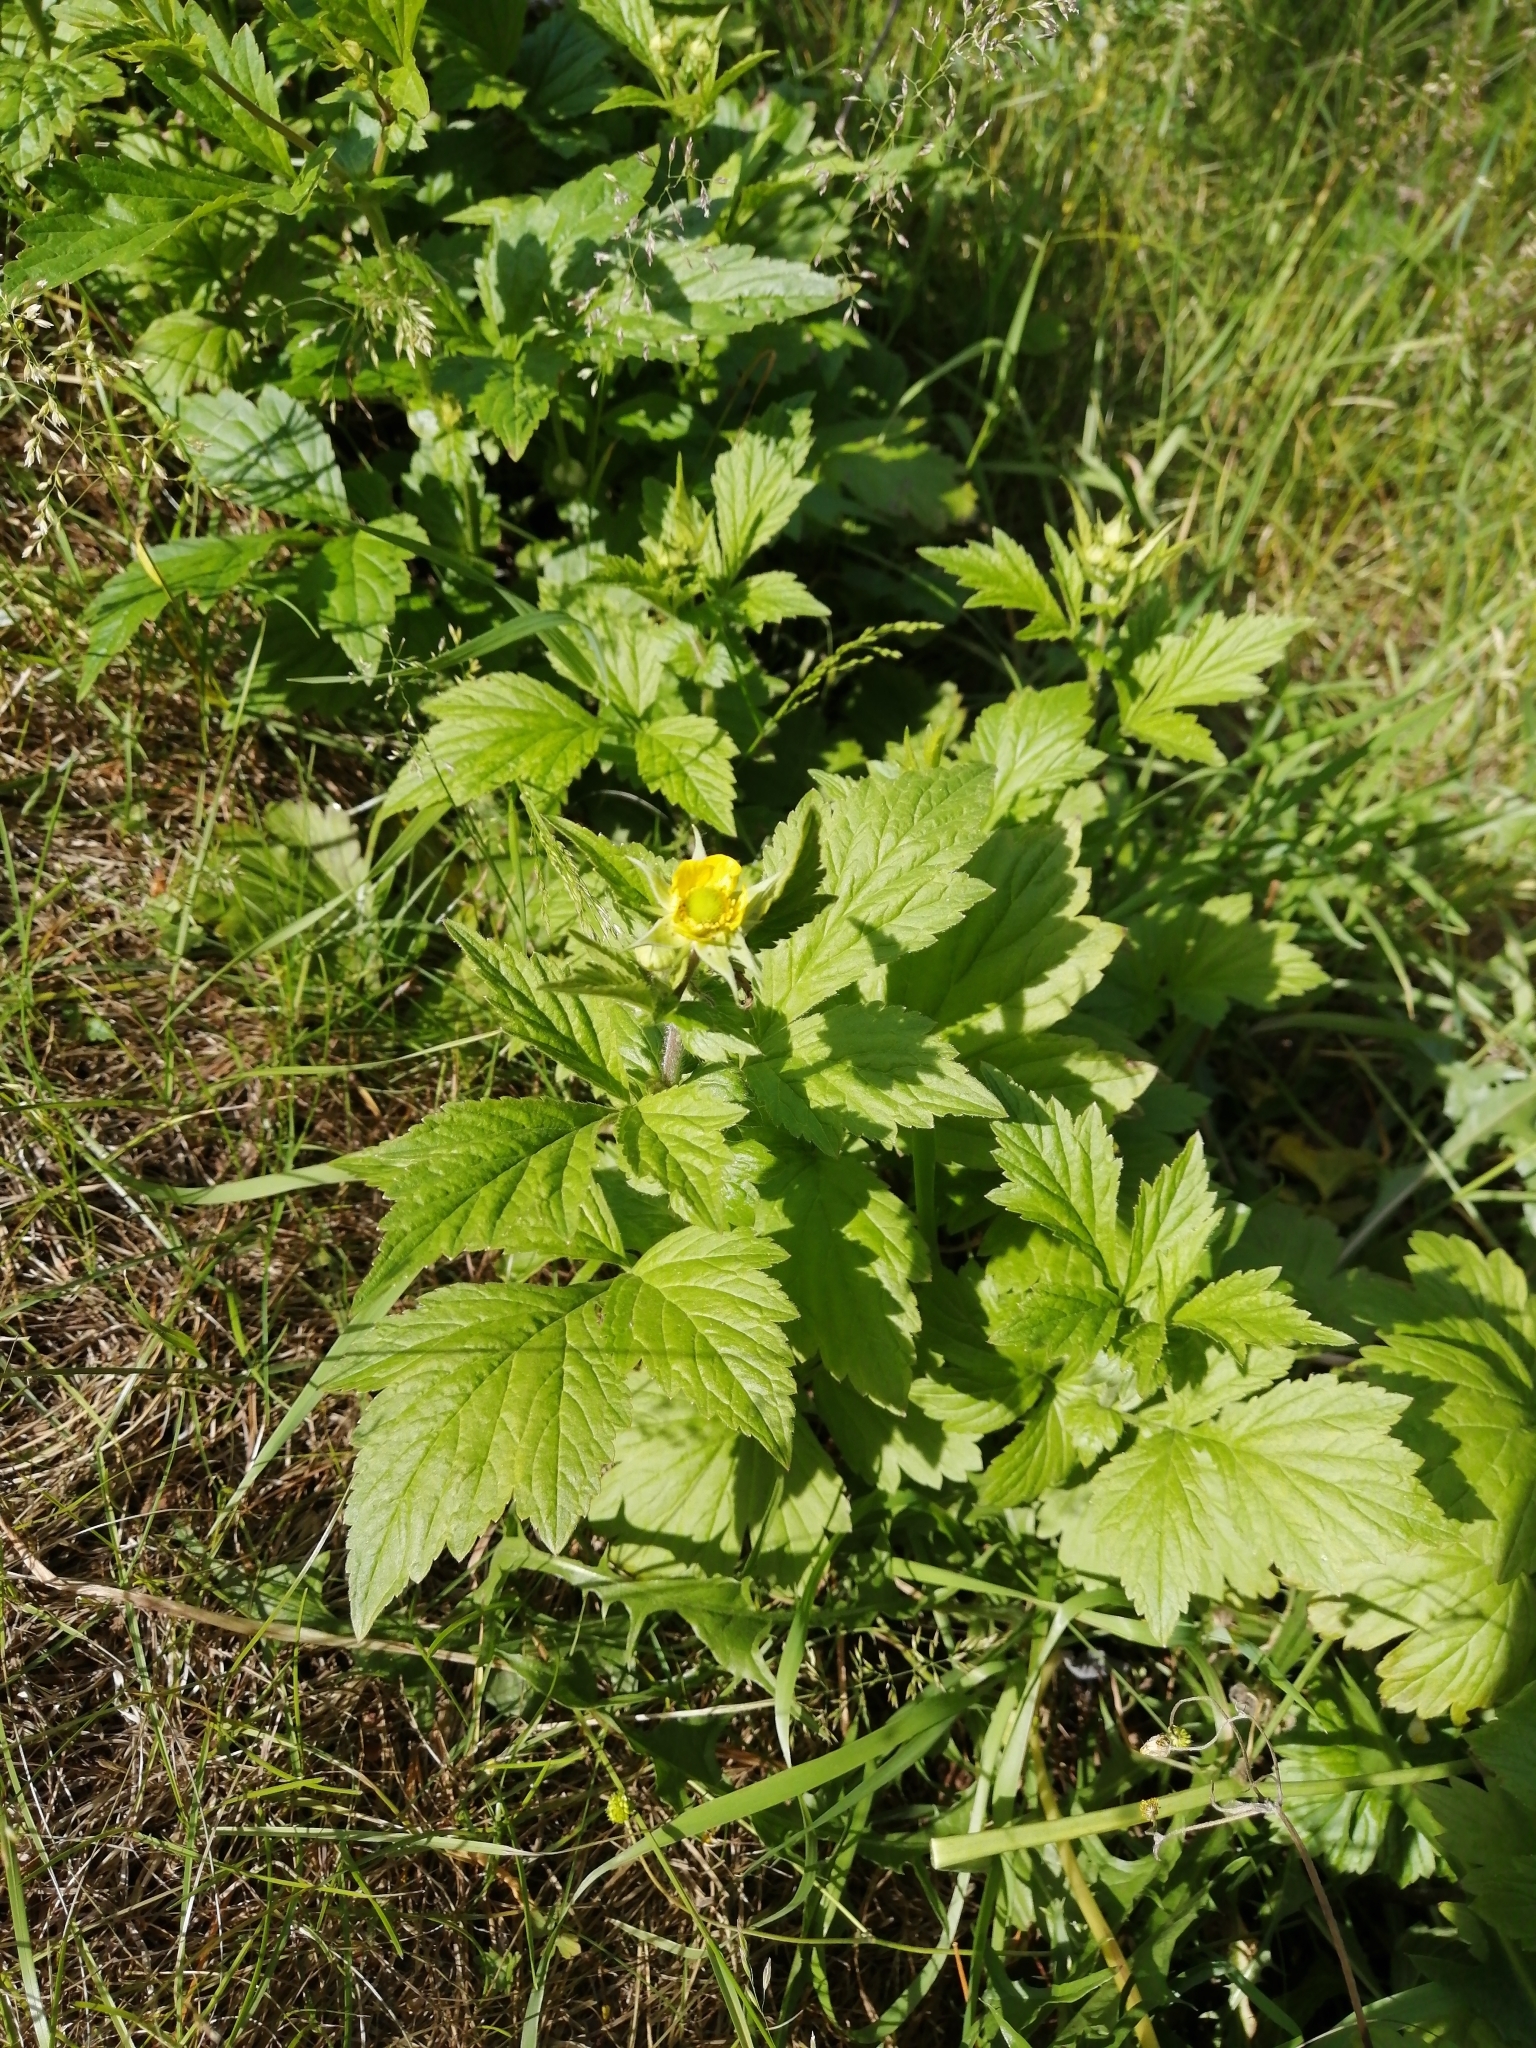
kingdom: Plantae
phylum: Tracheophyta
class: Magnoliopsida
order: Rosales
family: Rosaceae
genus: Geum
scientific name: Geum aleppicum
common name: Yellow avens
